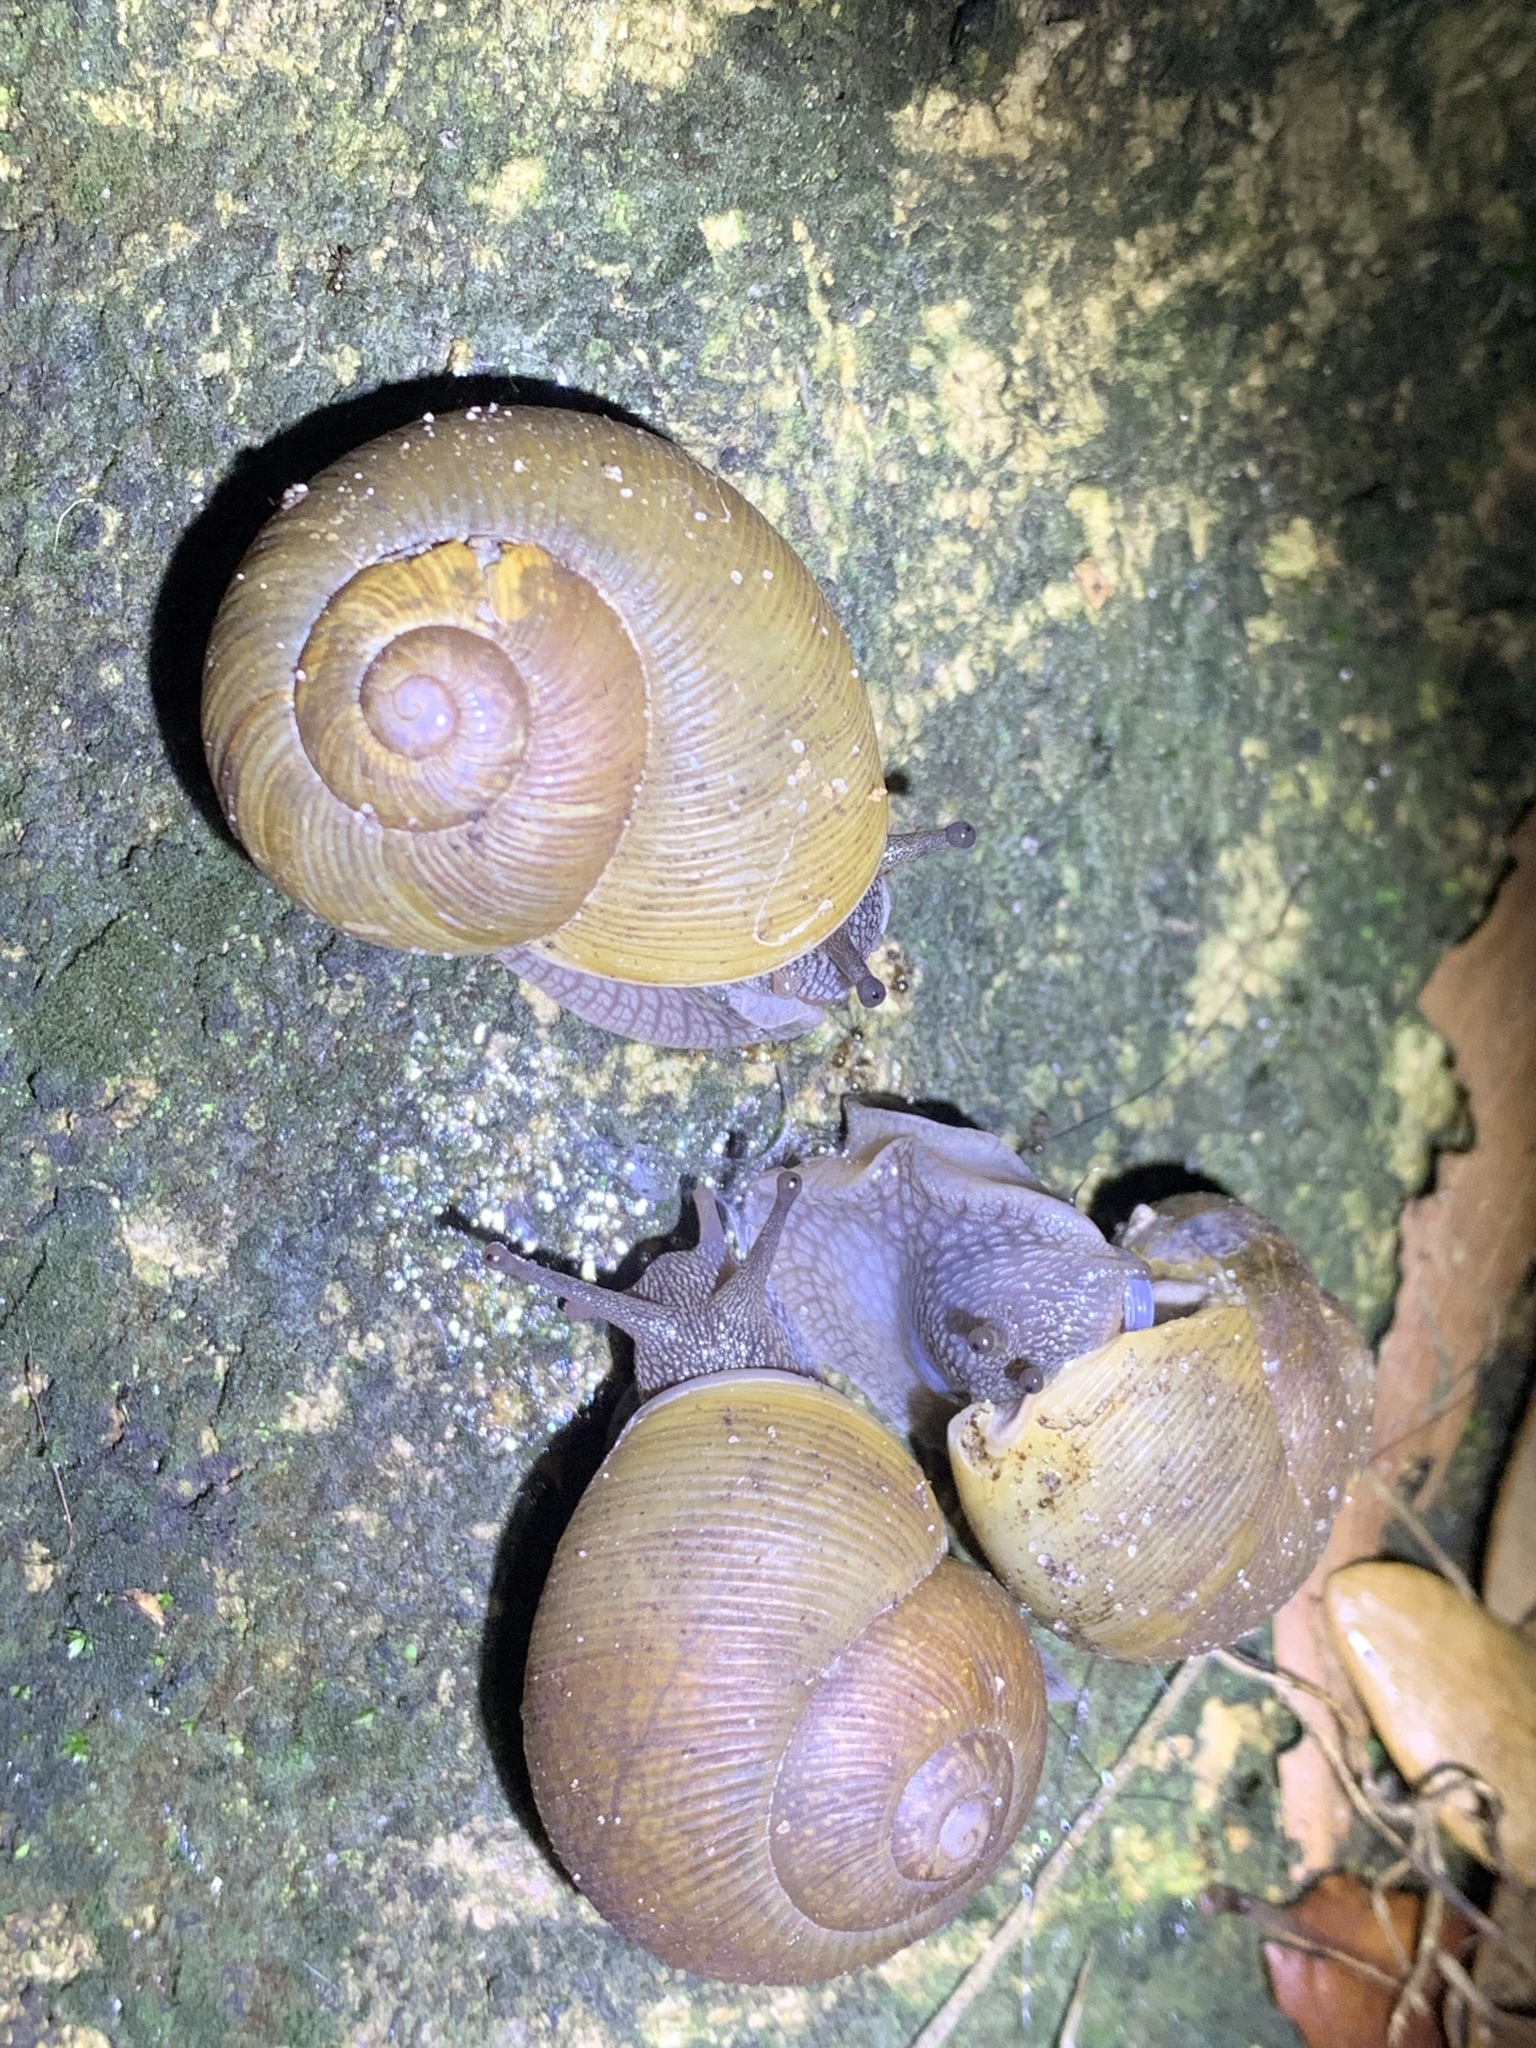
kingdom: Animalia
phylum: Mollusca
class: Gastropoda
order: Stylommatophora
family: Zachrysiidae
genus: Zachrysia
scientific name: Zachrysia provisoria
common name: Garden zachrysia
